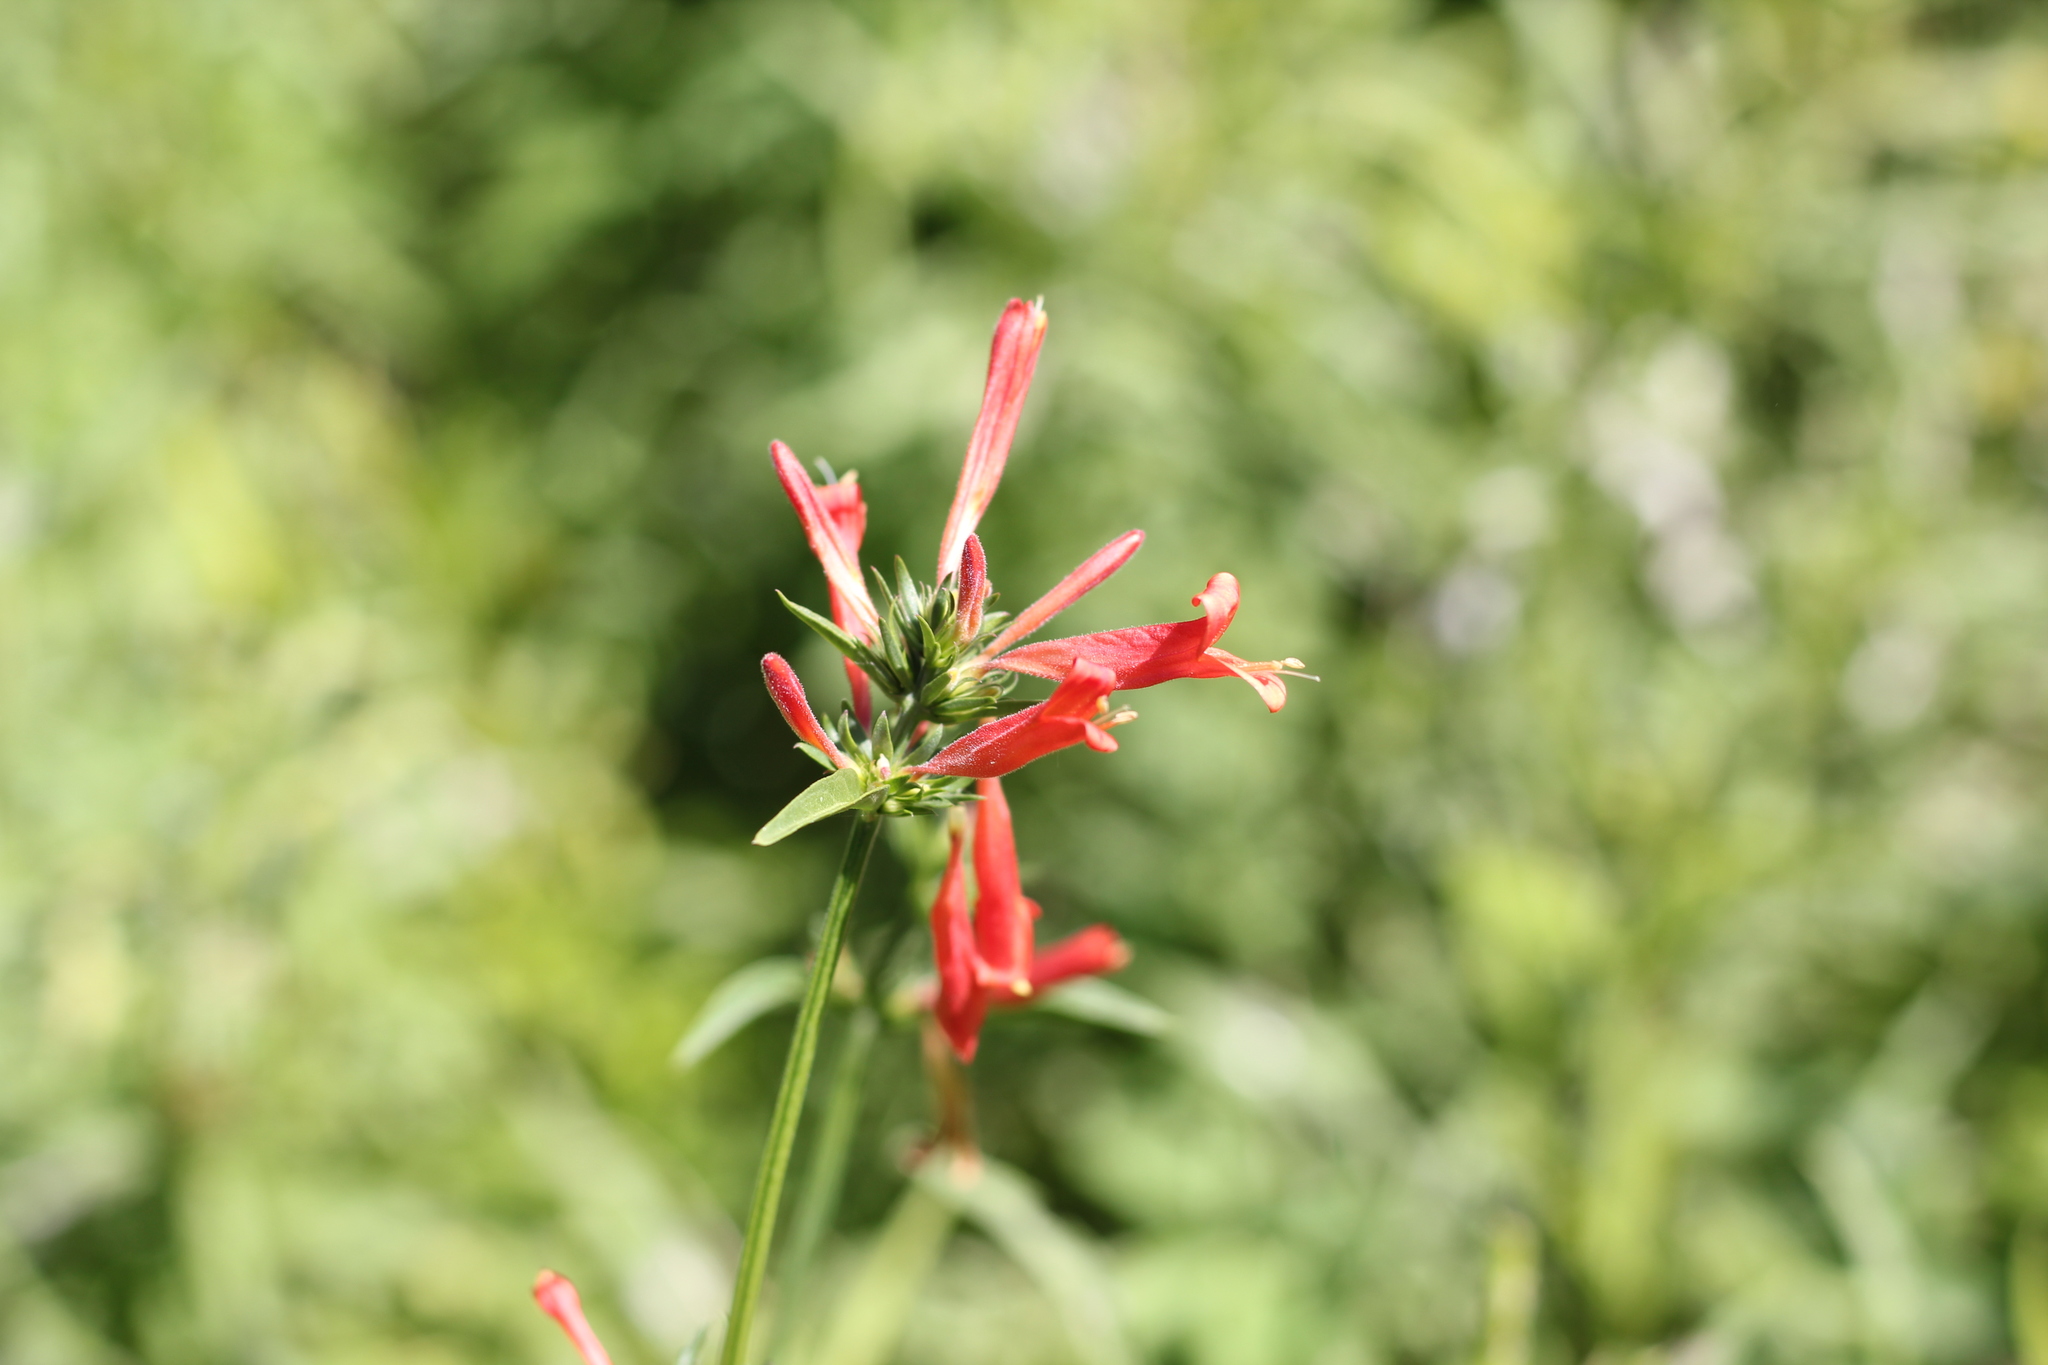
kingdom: Plantae
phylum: Tracheophyta
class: Magnoliopsida
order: Lamiales
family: Acanthaceae
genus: Dicliptera
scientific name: Dicliptera squarrosa
